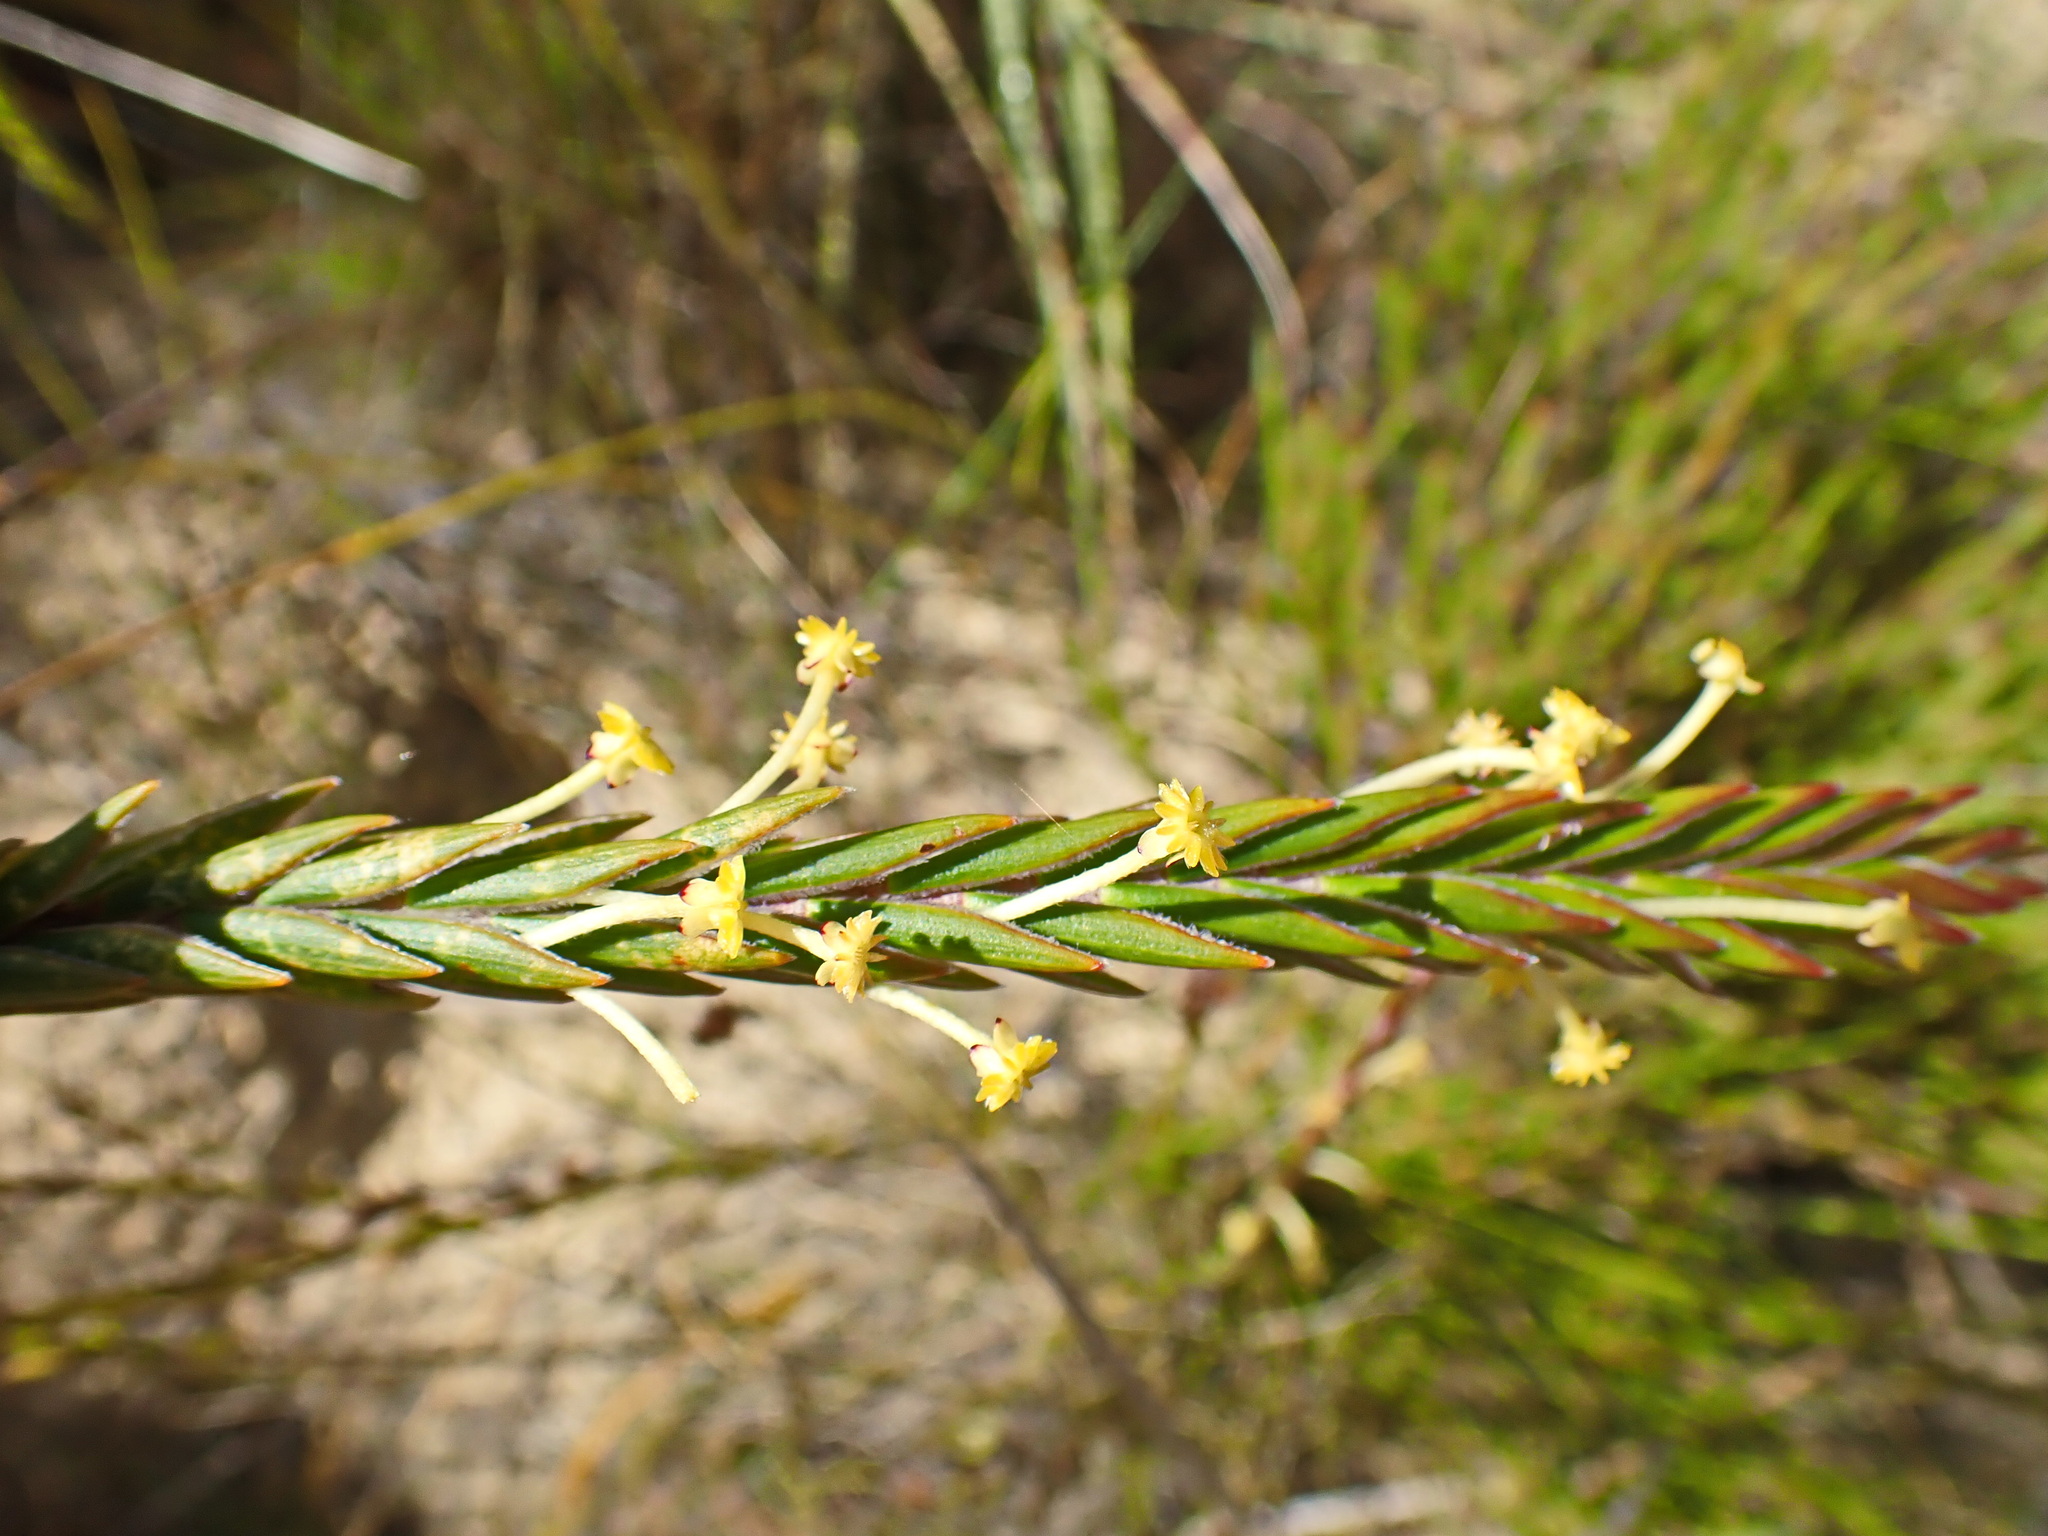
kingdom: Plantae
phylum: Tracheophyta
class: Magnoliopsida
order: Malvales
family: Thymelaeaceae
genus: Struthiola
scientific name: Struthiola tomentosa
